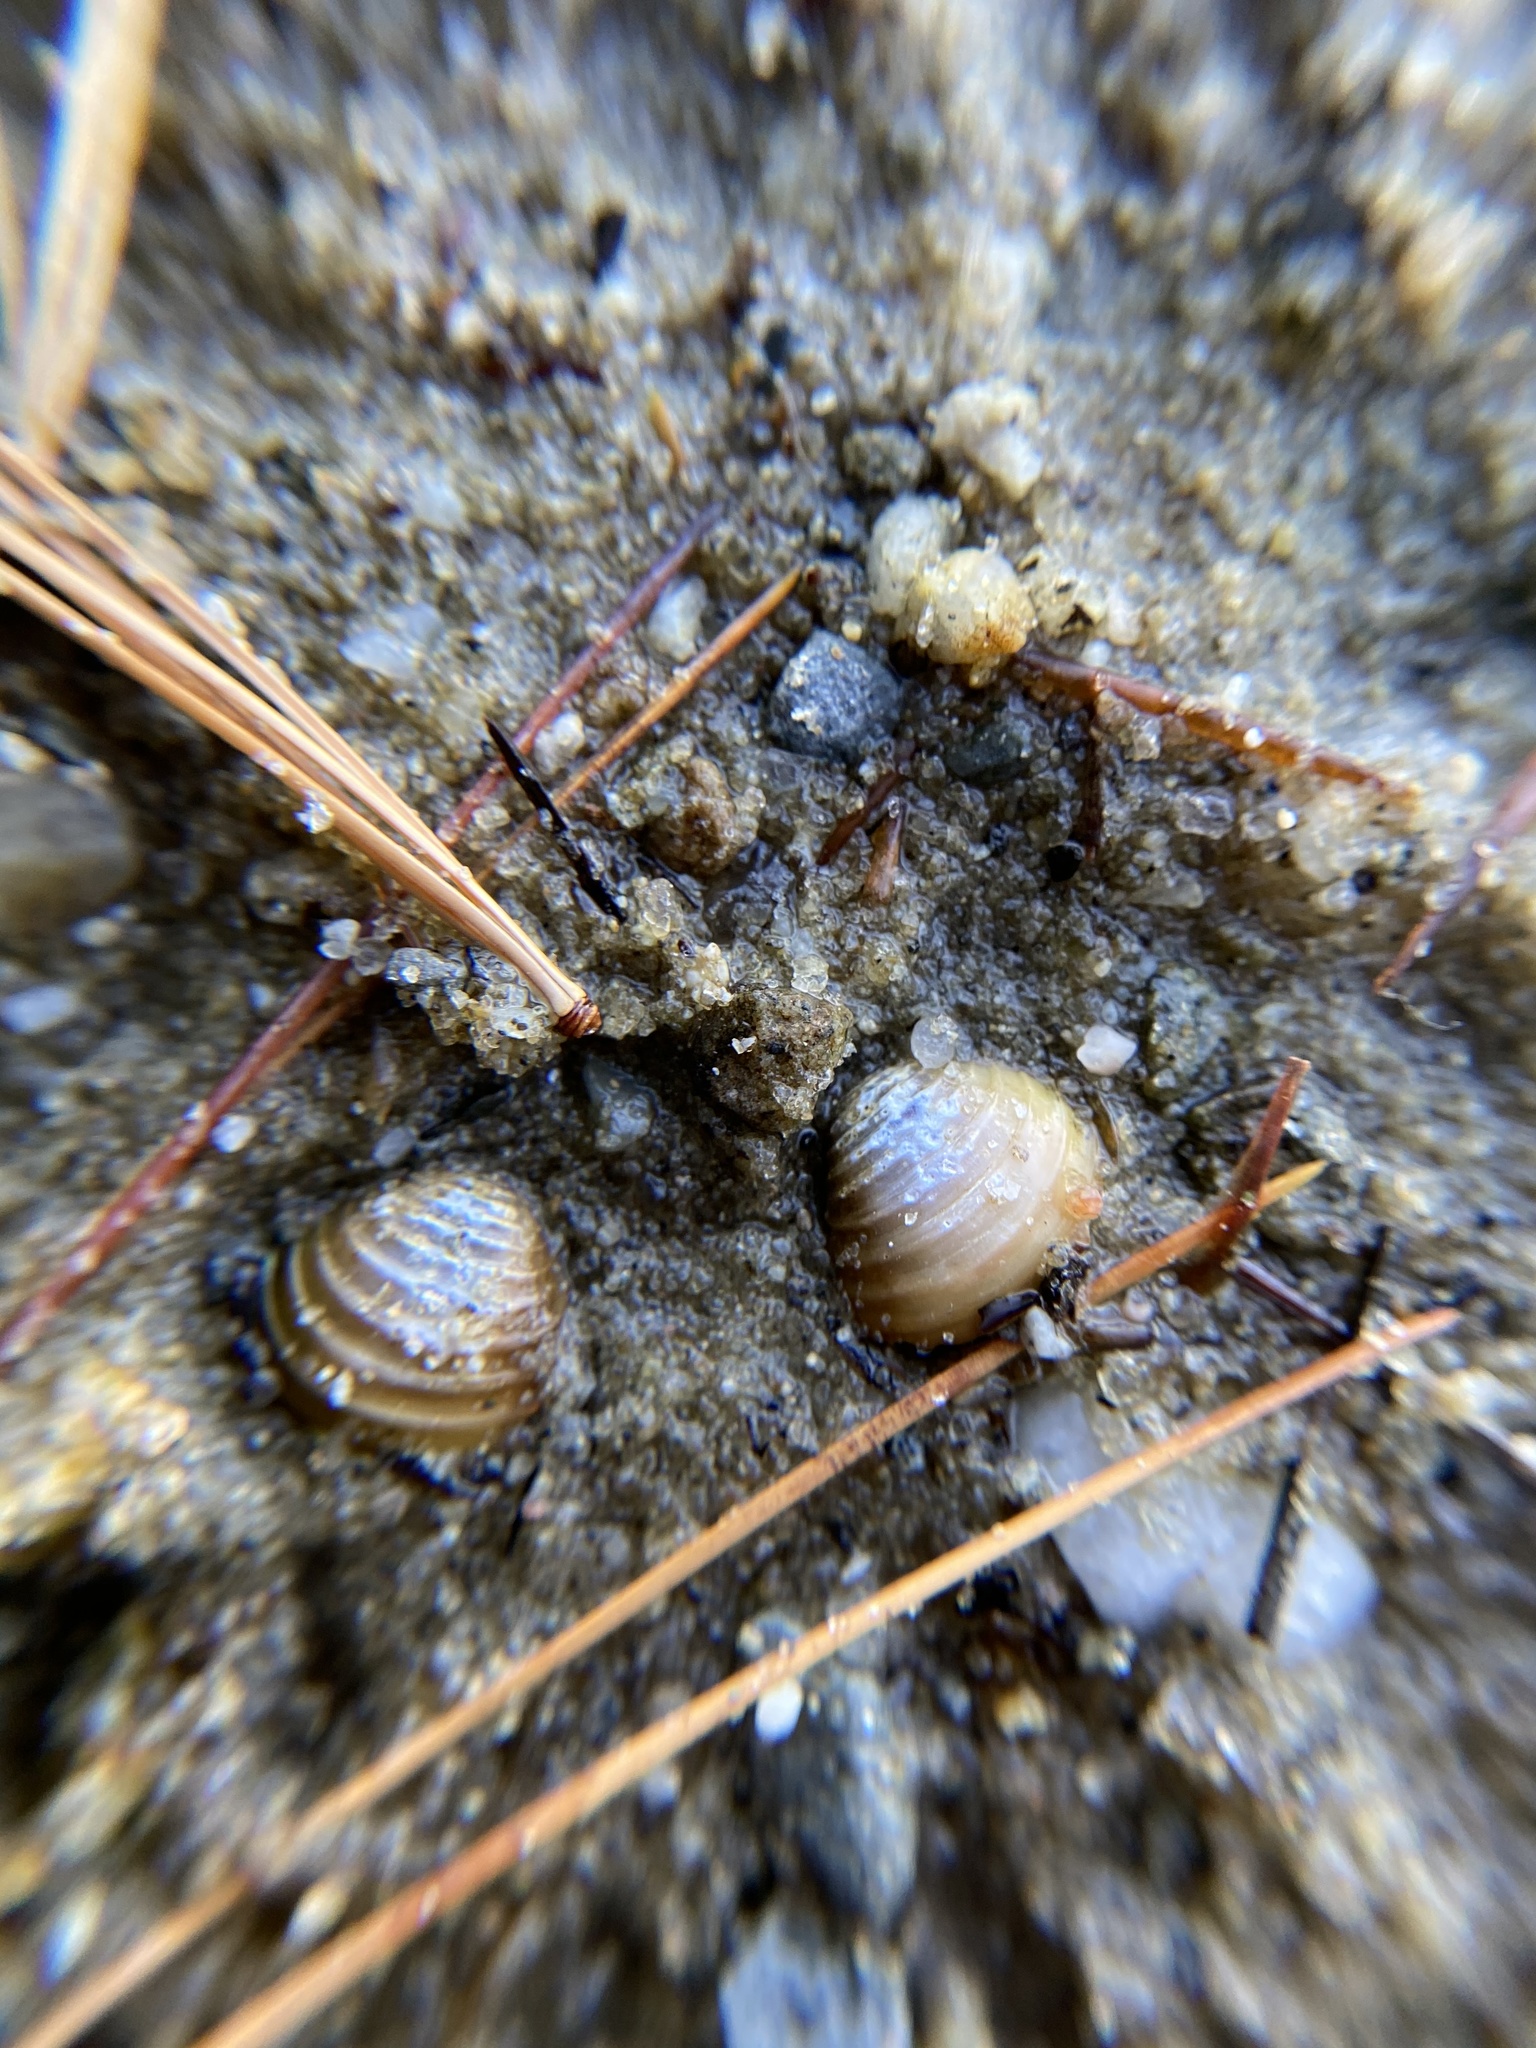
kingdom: Animalia
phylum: Mollusca
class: Bivalvia
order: Venerida
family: Cyrenidae
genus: Corbicula
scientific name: Corbicula fluminea
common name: Asian clam
